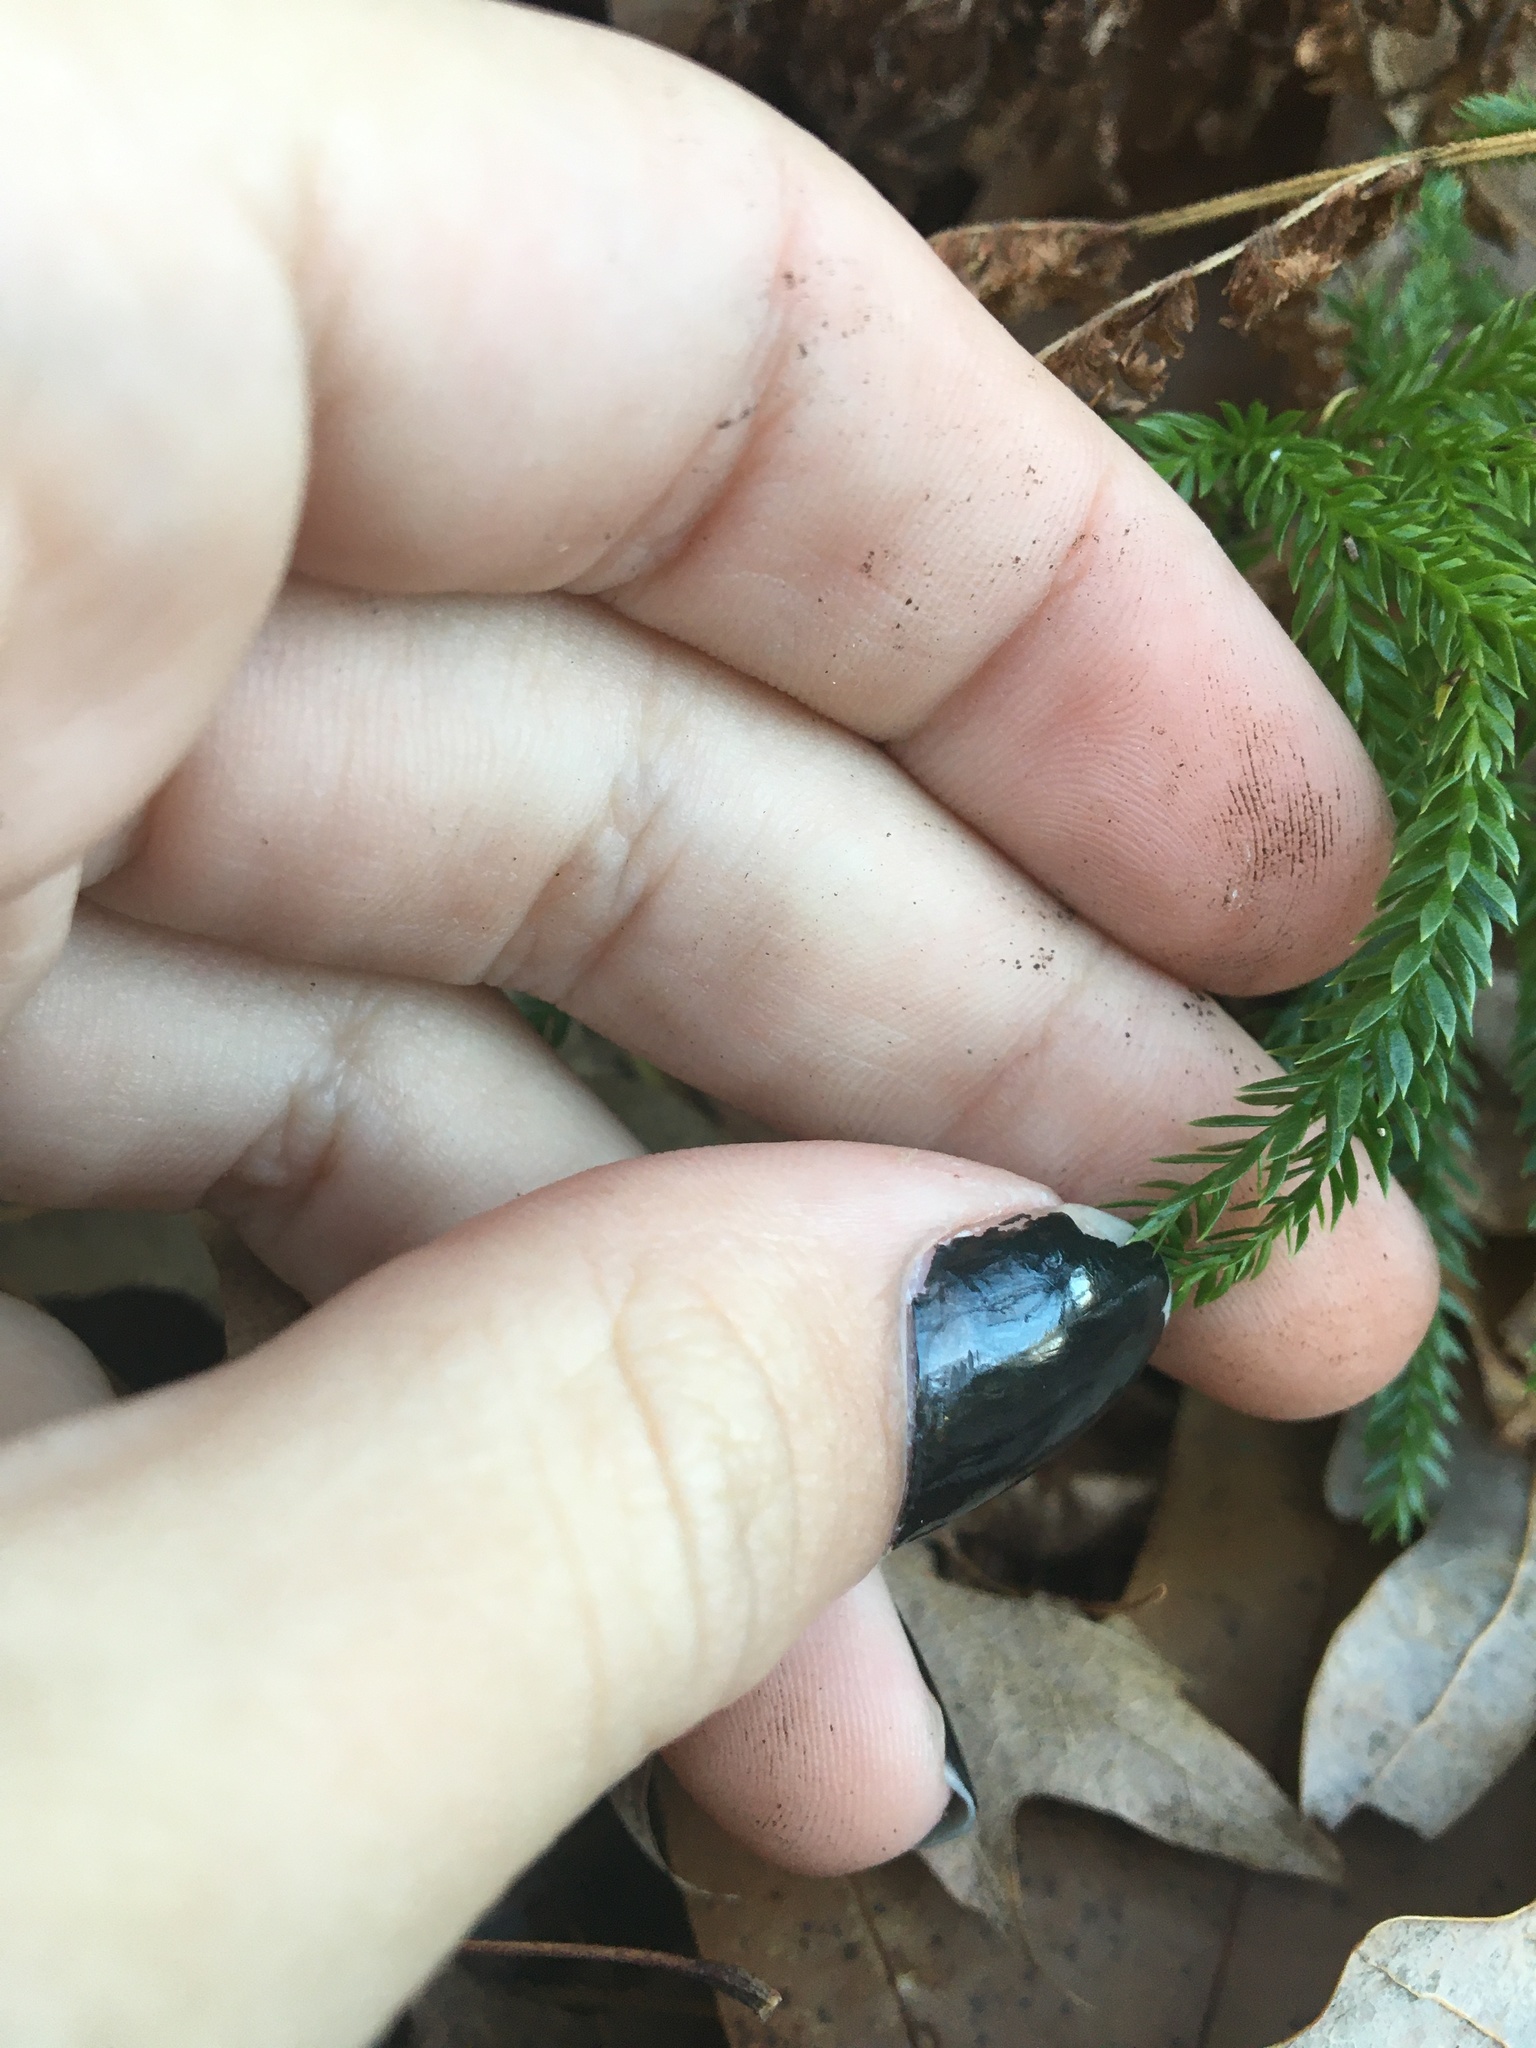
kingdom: Plantae
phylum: Tracheophyta
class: Lycopodiopsida
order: Lycopodiales
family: Lycopodiaceae
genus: Dendrolycopodium
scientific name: Dendrolycopodium obscurum
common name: Common ground-pine
